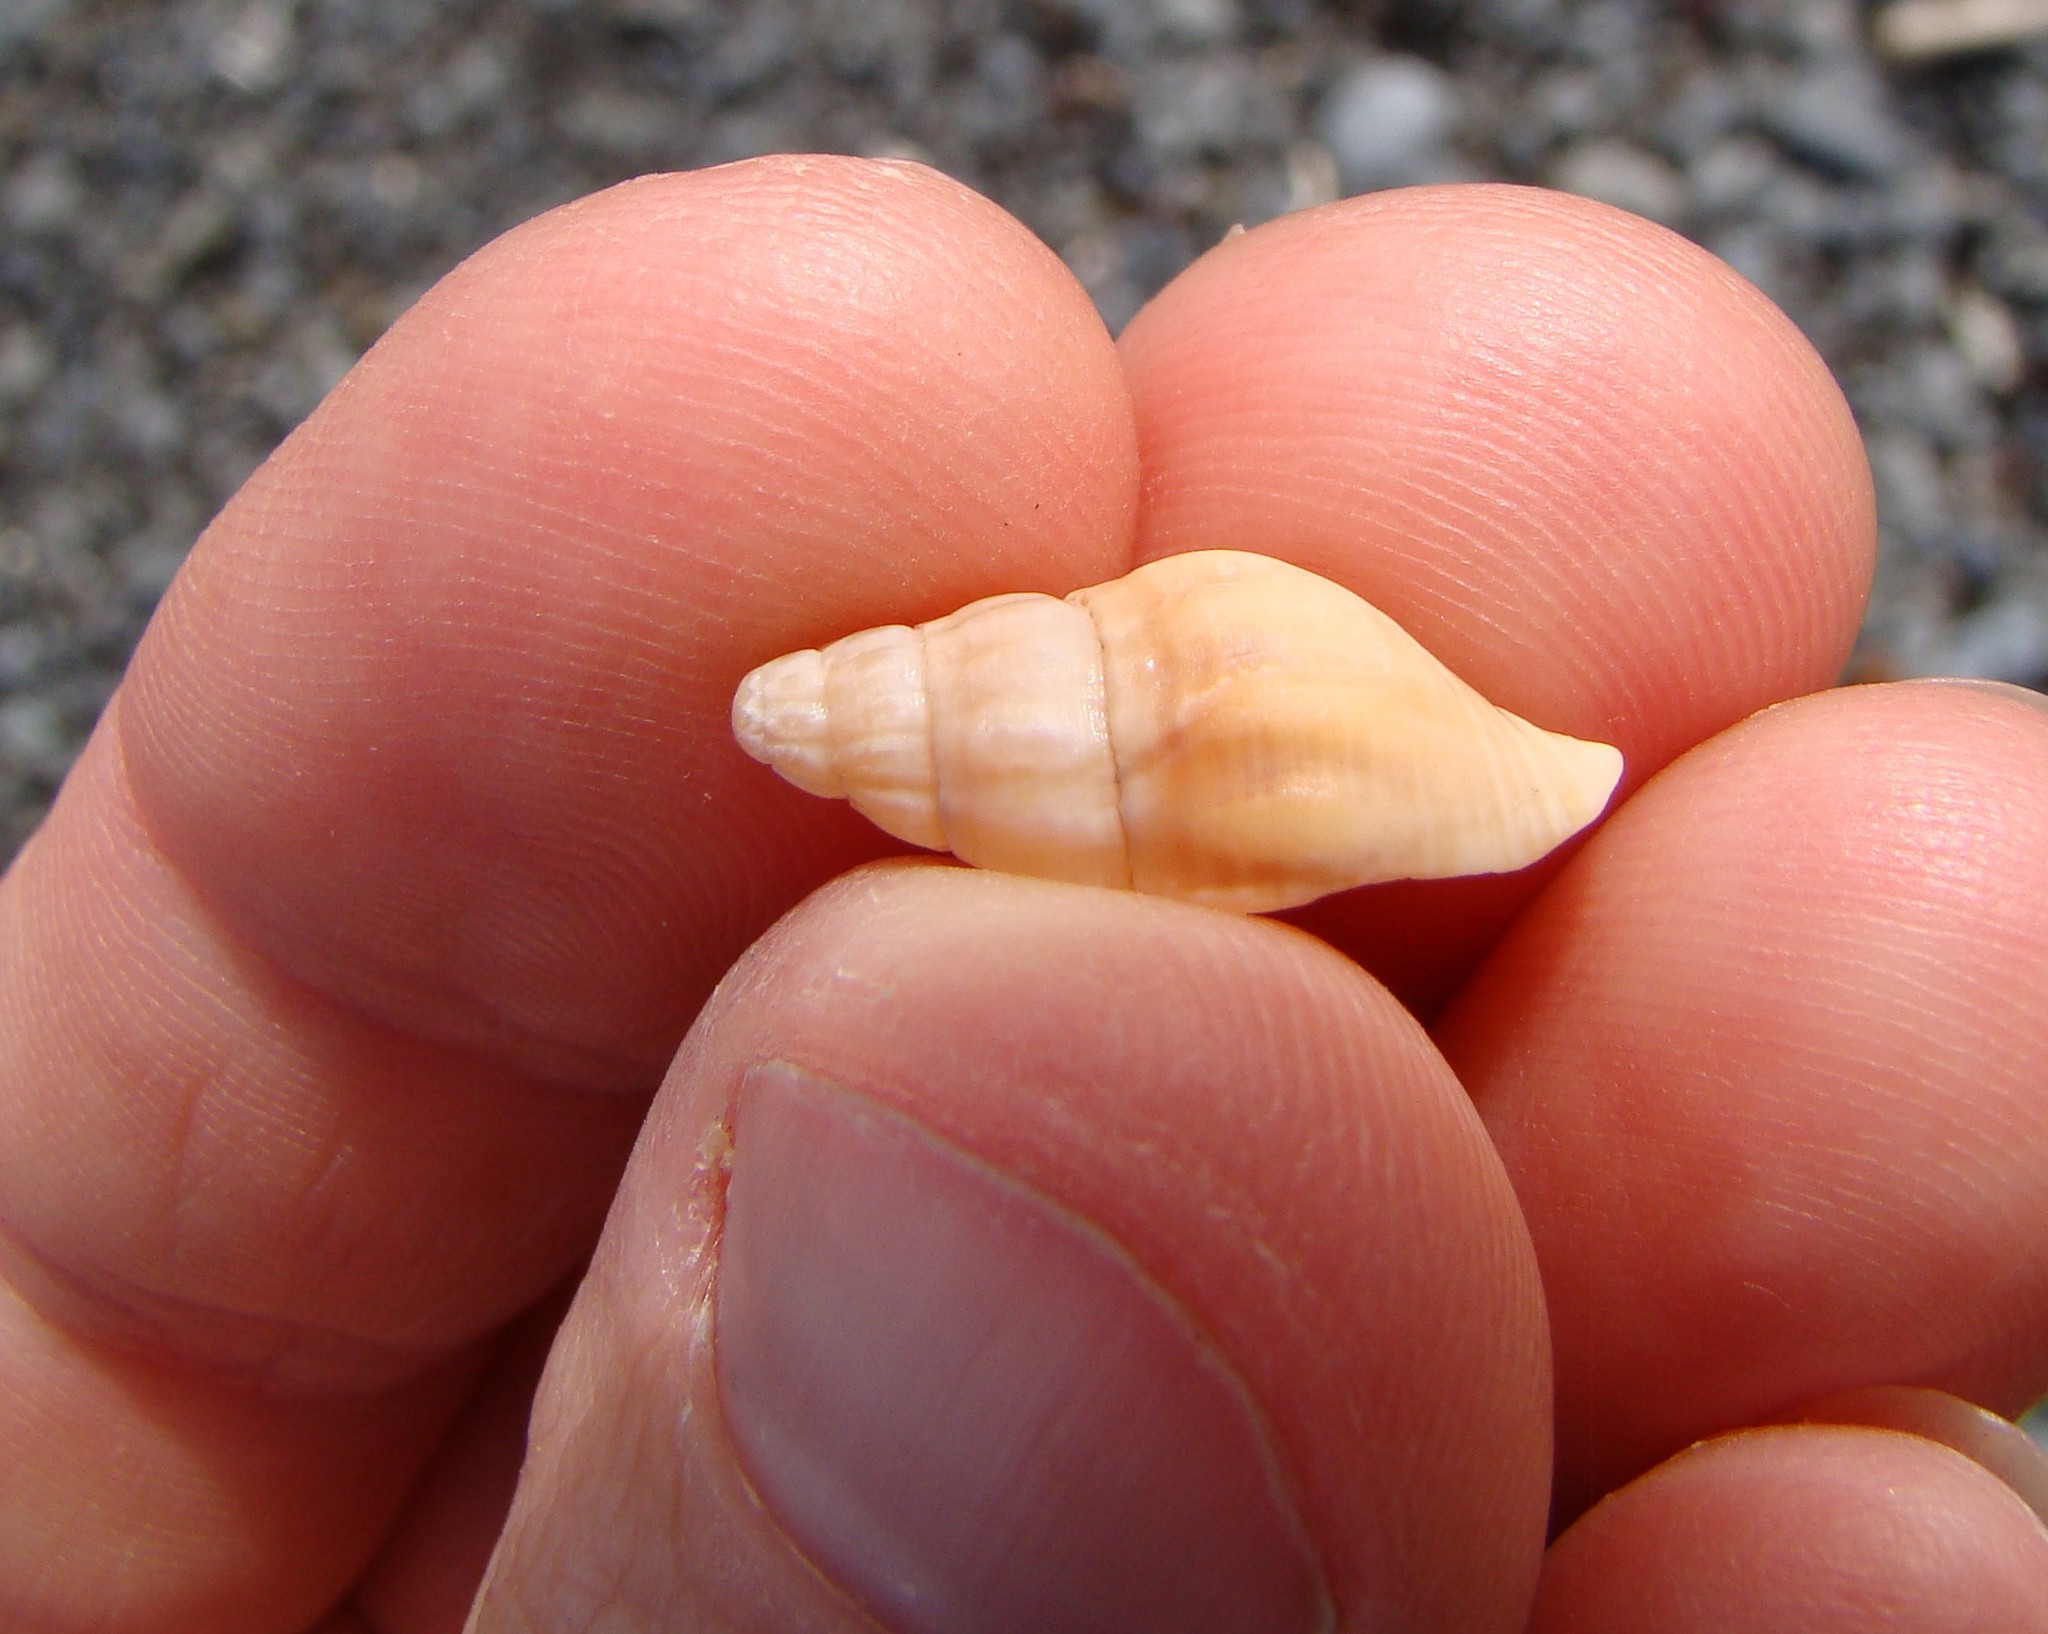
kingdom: Animalia
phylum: Mollusca
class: Gastropoda
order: Neogastropoda
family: Tudiclidae
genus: Buccinulum
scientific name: Buccinulum littorinoides
